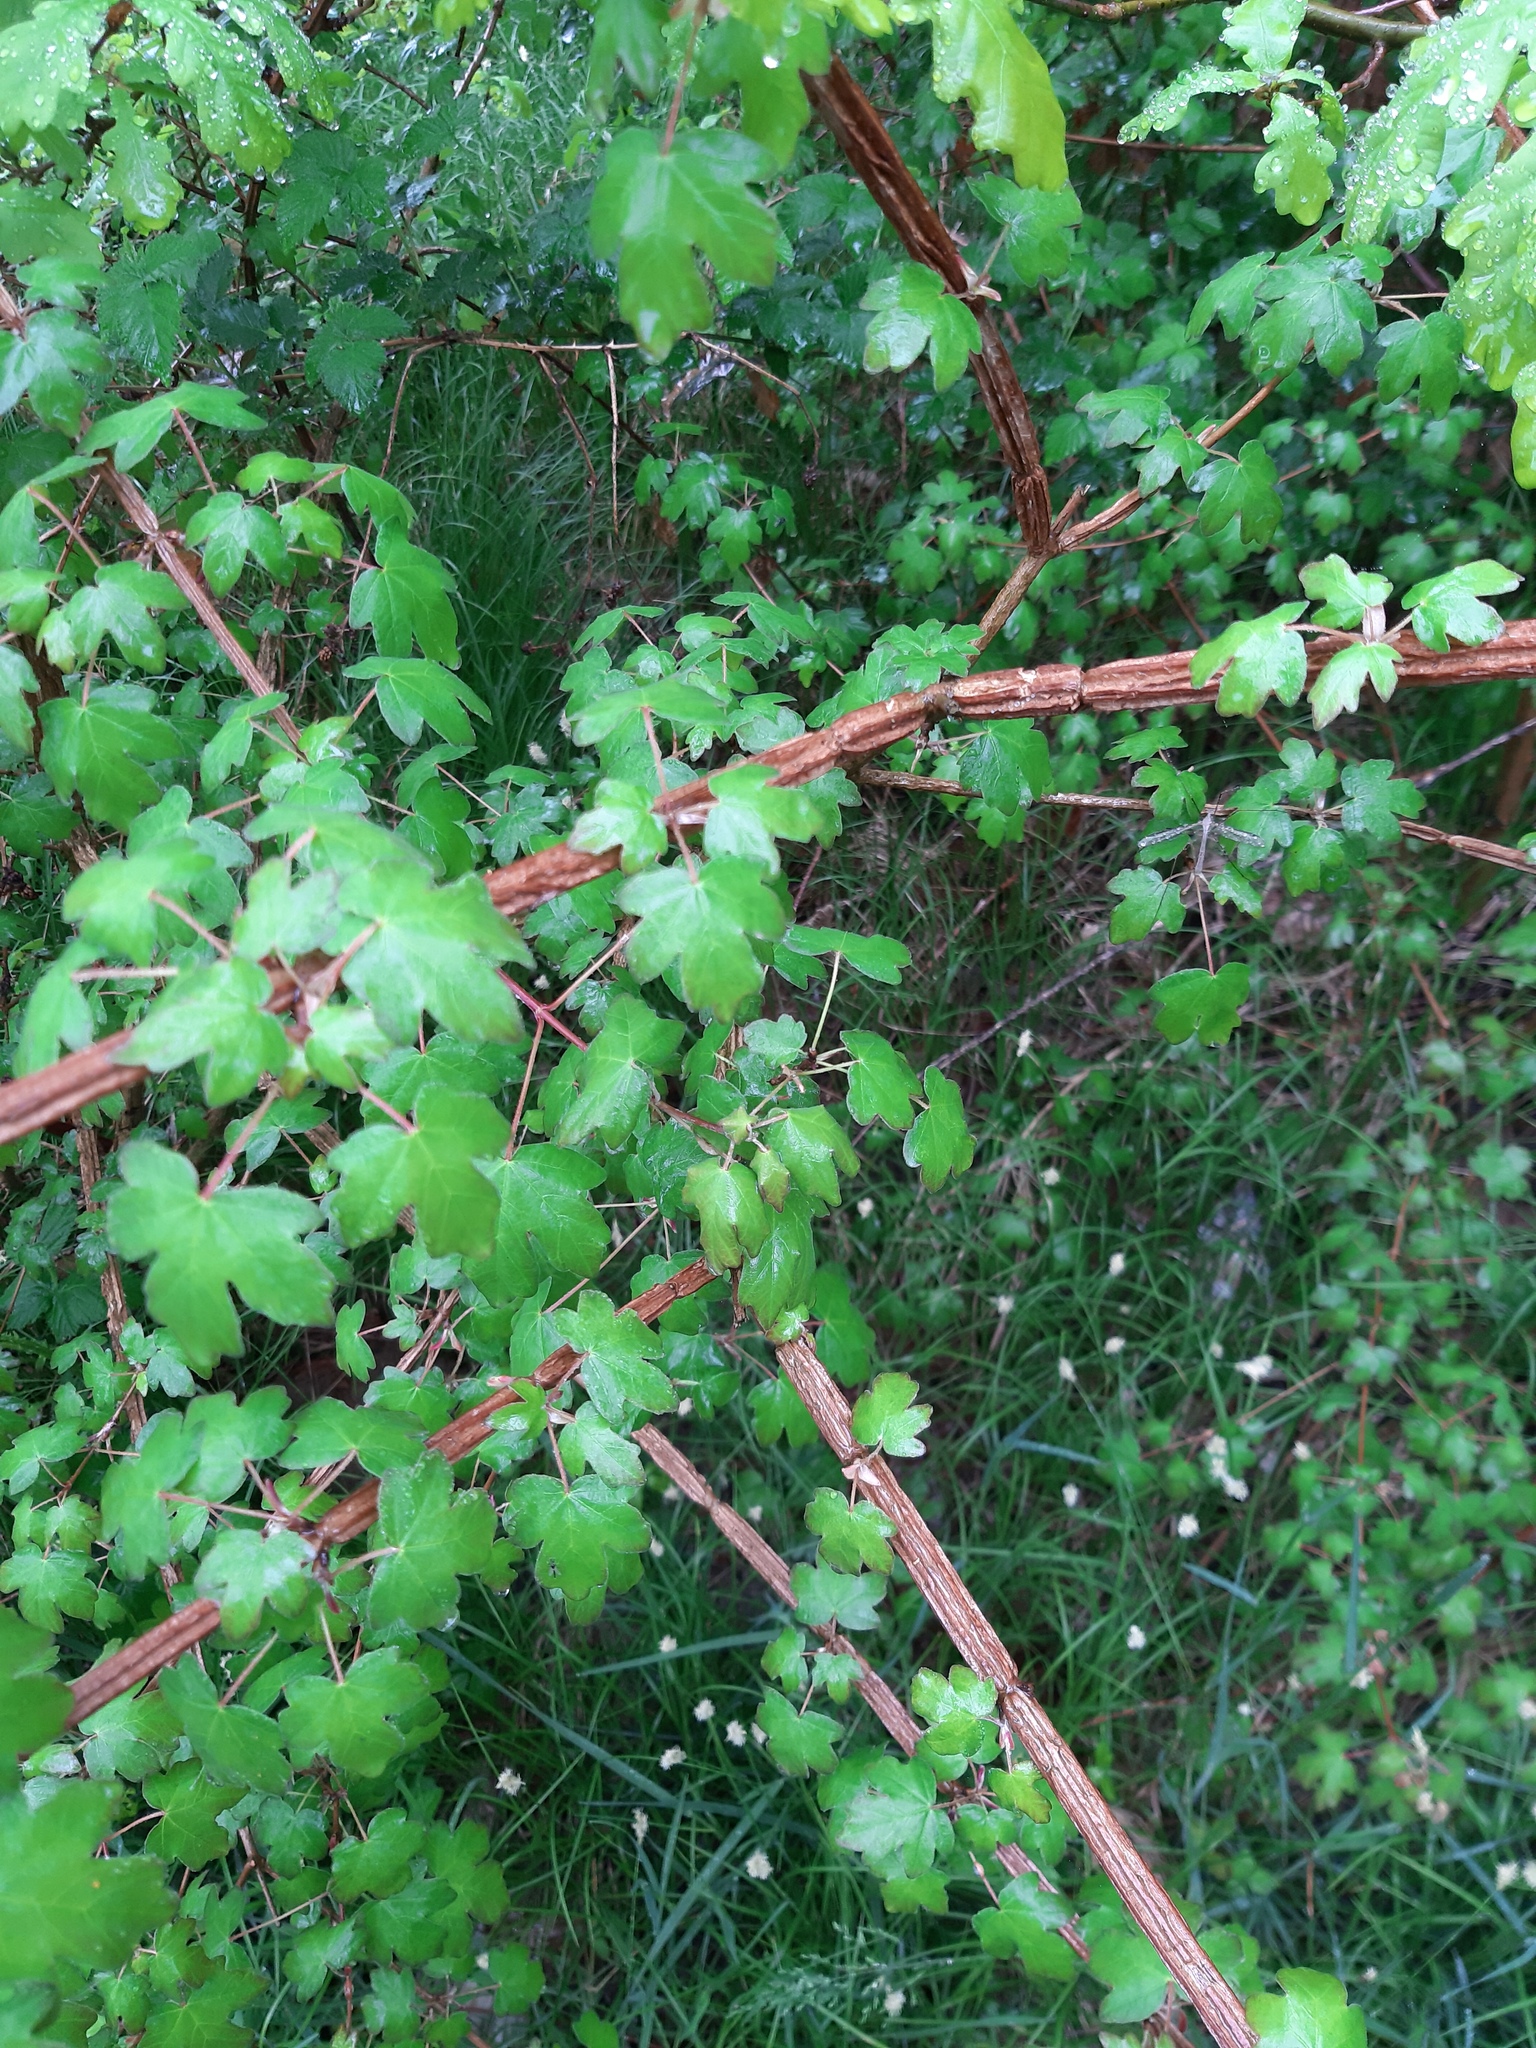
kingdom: Plantae
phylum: Tracheophyta
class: Magnoliopsida
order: Sapindales
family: Sapindaceae
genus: Acer
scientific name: Acer campestre
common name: Field maple
